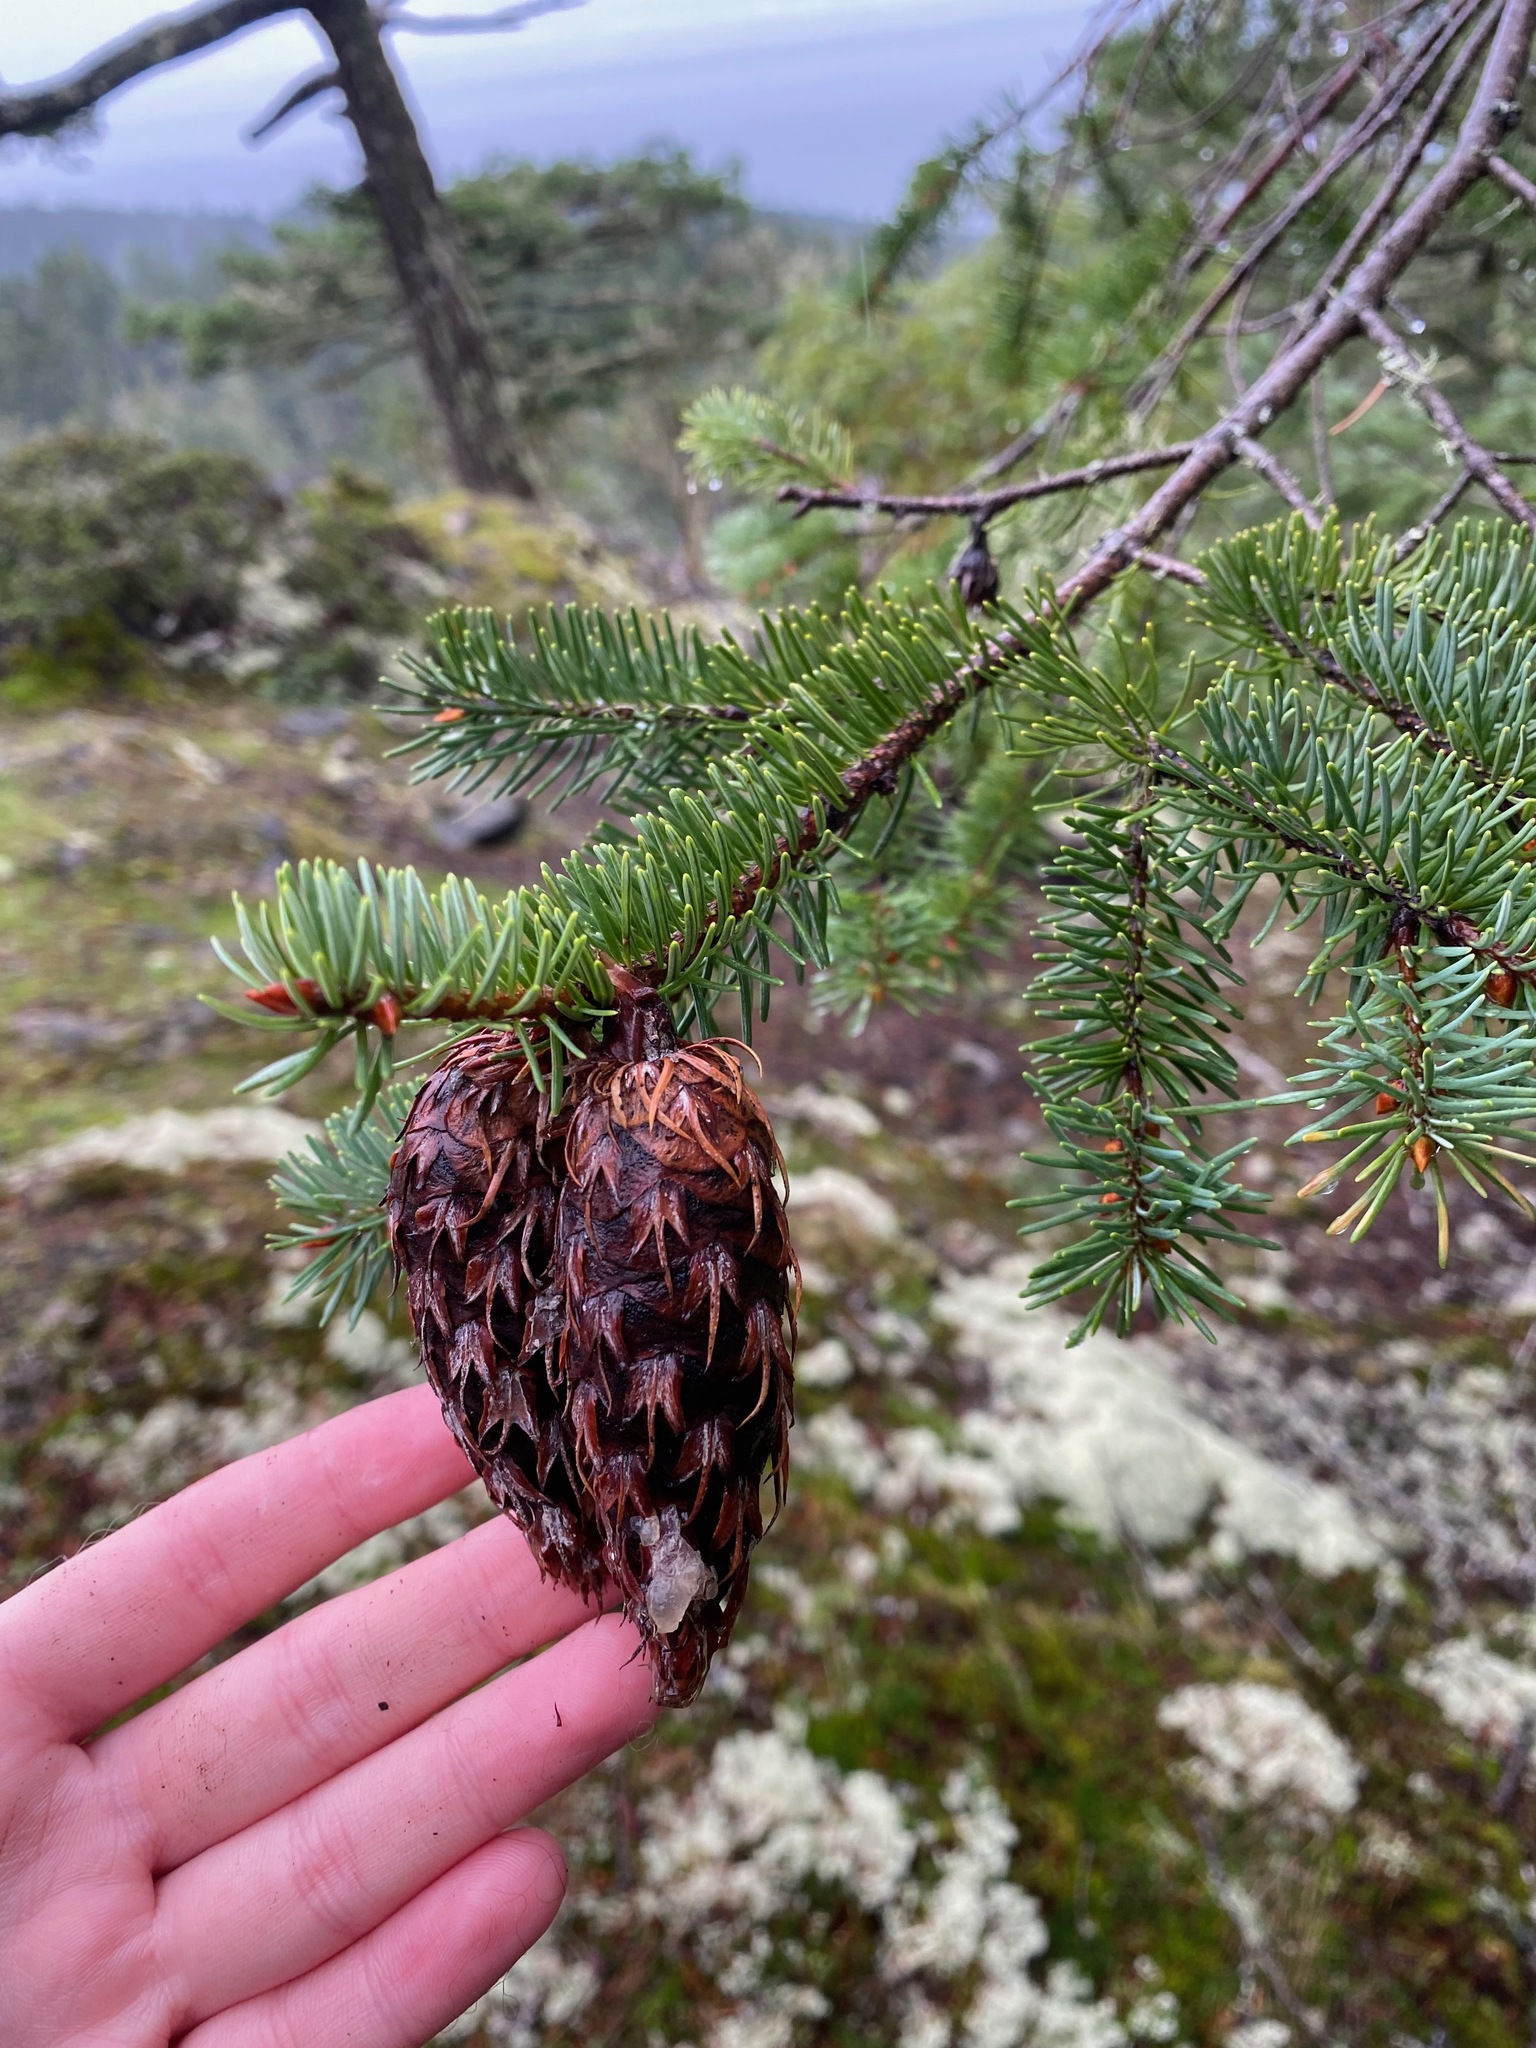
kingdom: Plantae
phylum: Tracheophyta
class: Pinopsida
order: Pinales
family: Pinaceae
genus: Pseudotsuga
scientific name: Pseudotsuga menziesii
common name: Douglas fir
